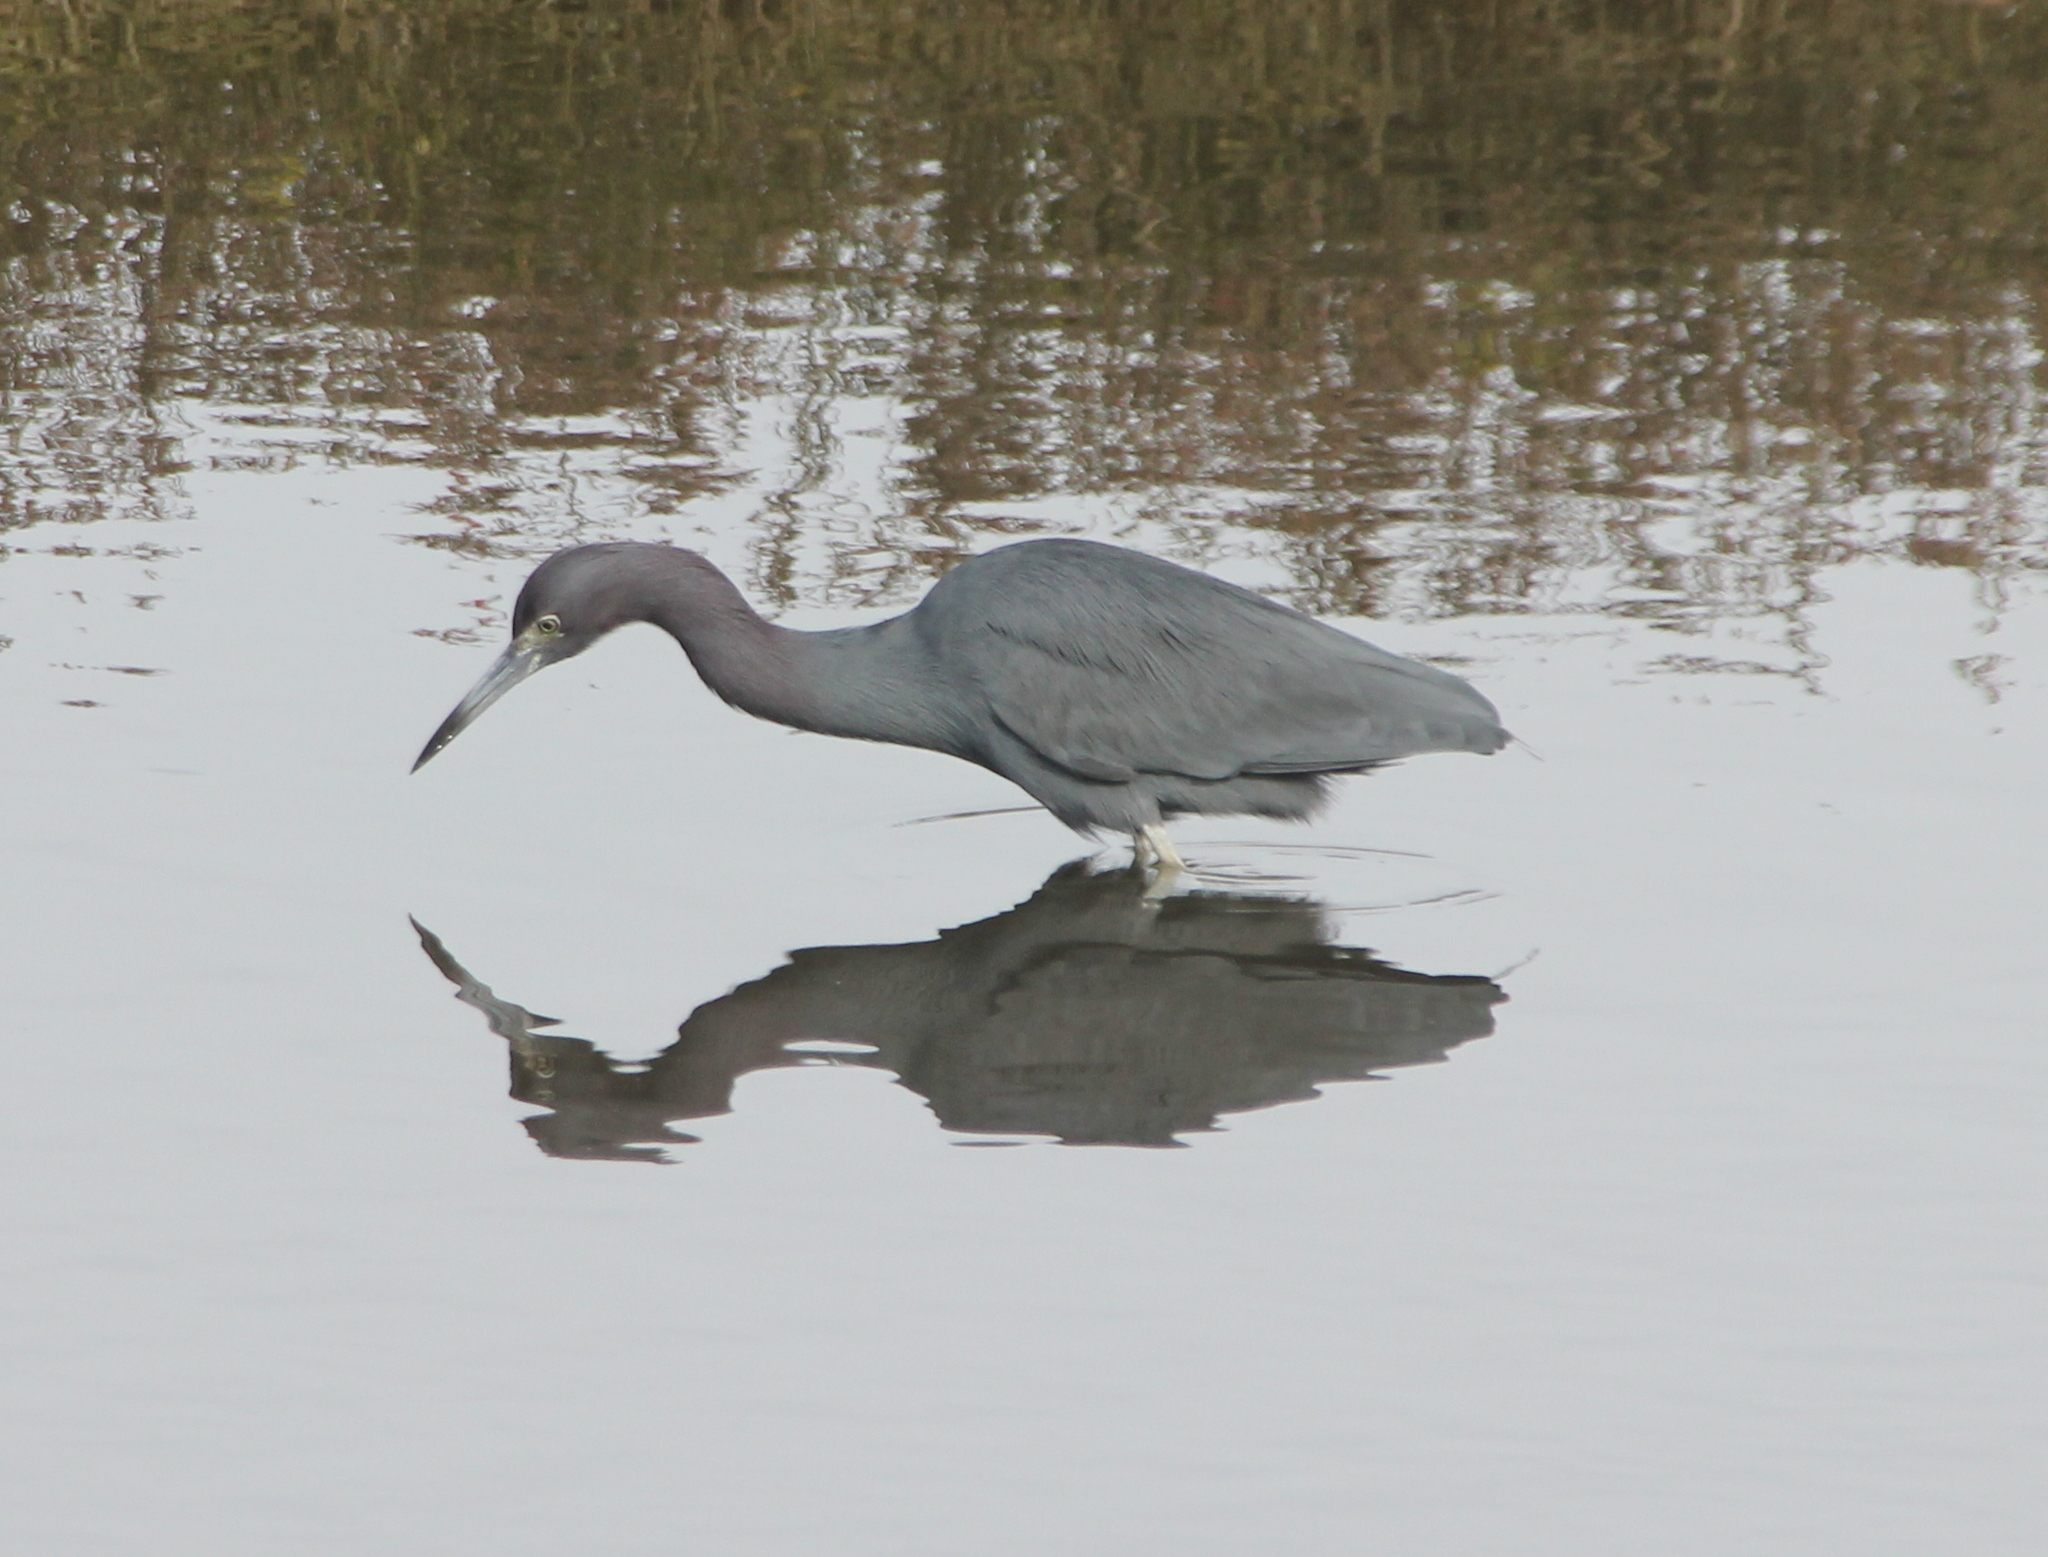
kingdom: Animalia
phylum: Chordata
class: Aves
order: Pelecaniformes
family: Ardeidae
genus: Egretta
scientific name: Egretta caerulea
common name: Little blue heron
